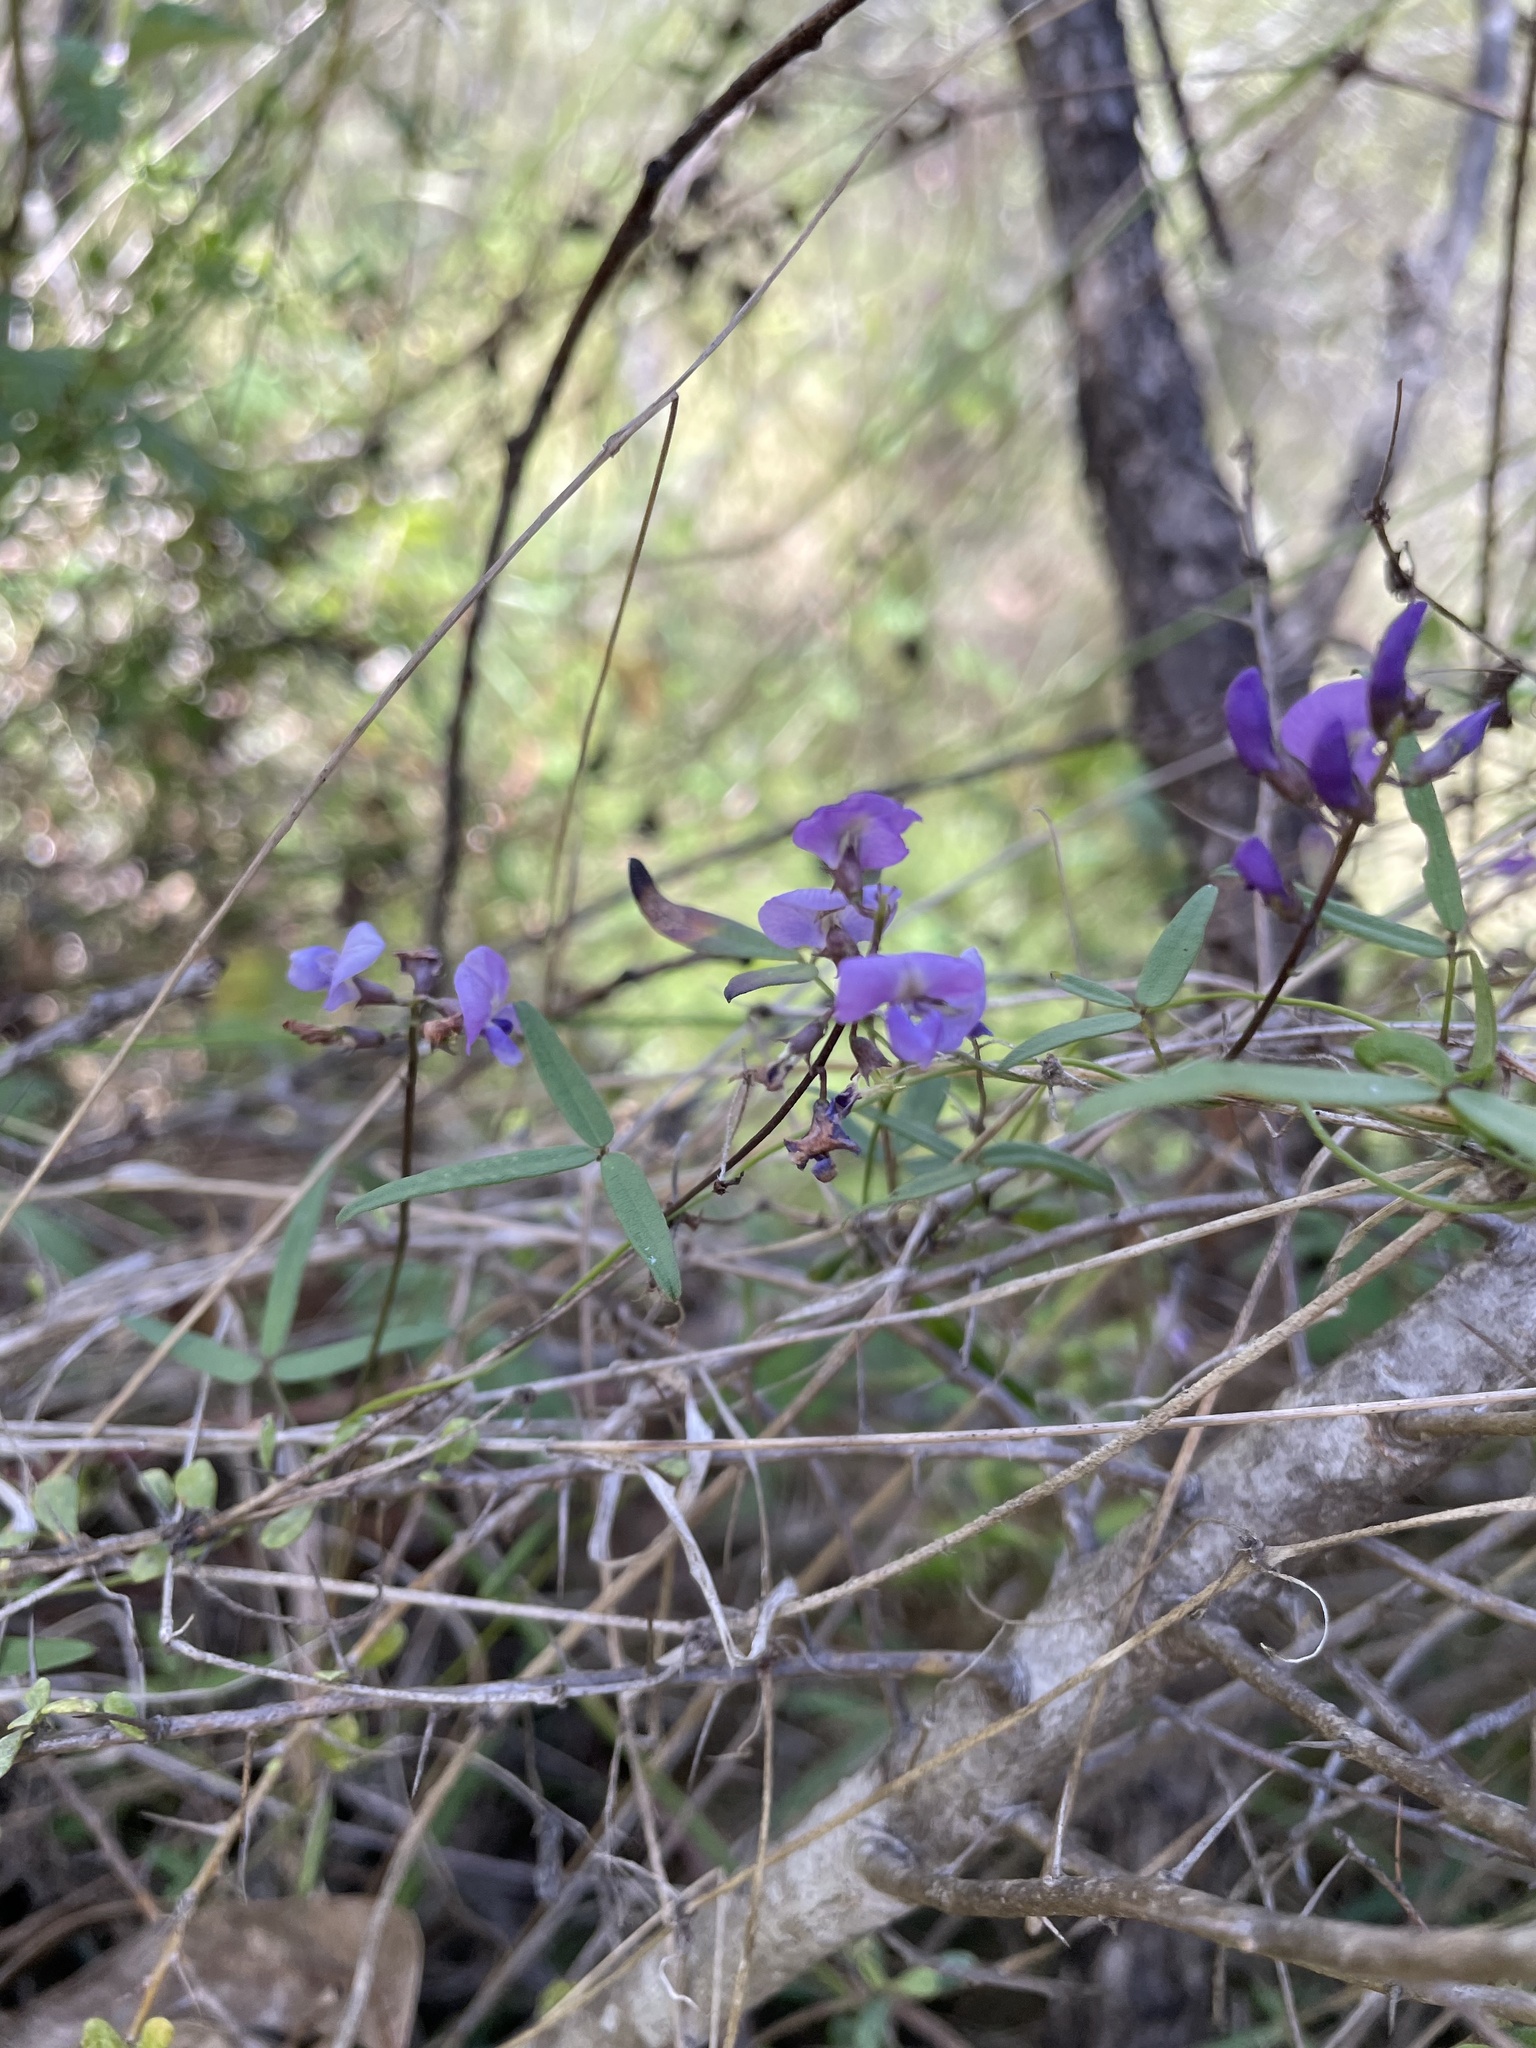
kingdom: Plantae
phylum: Tracheophyta
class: Magnoliopsida
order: Fabales
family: Fabaceae
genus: Glycine
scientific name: Glycine clandestina
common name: Twining glycine
